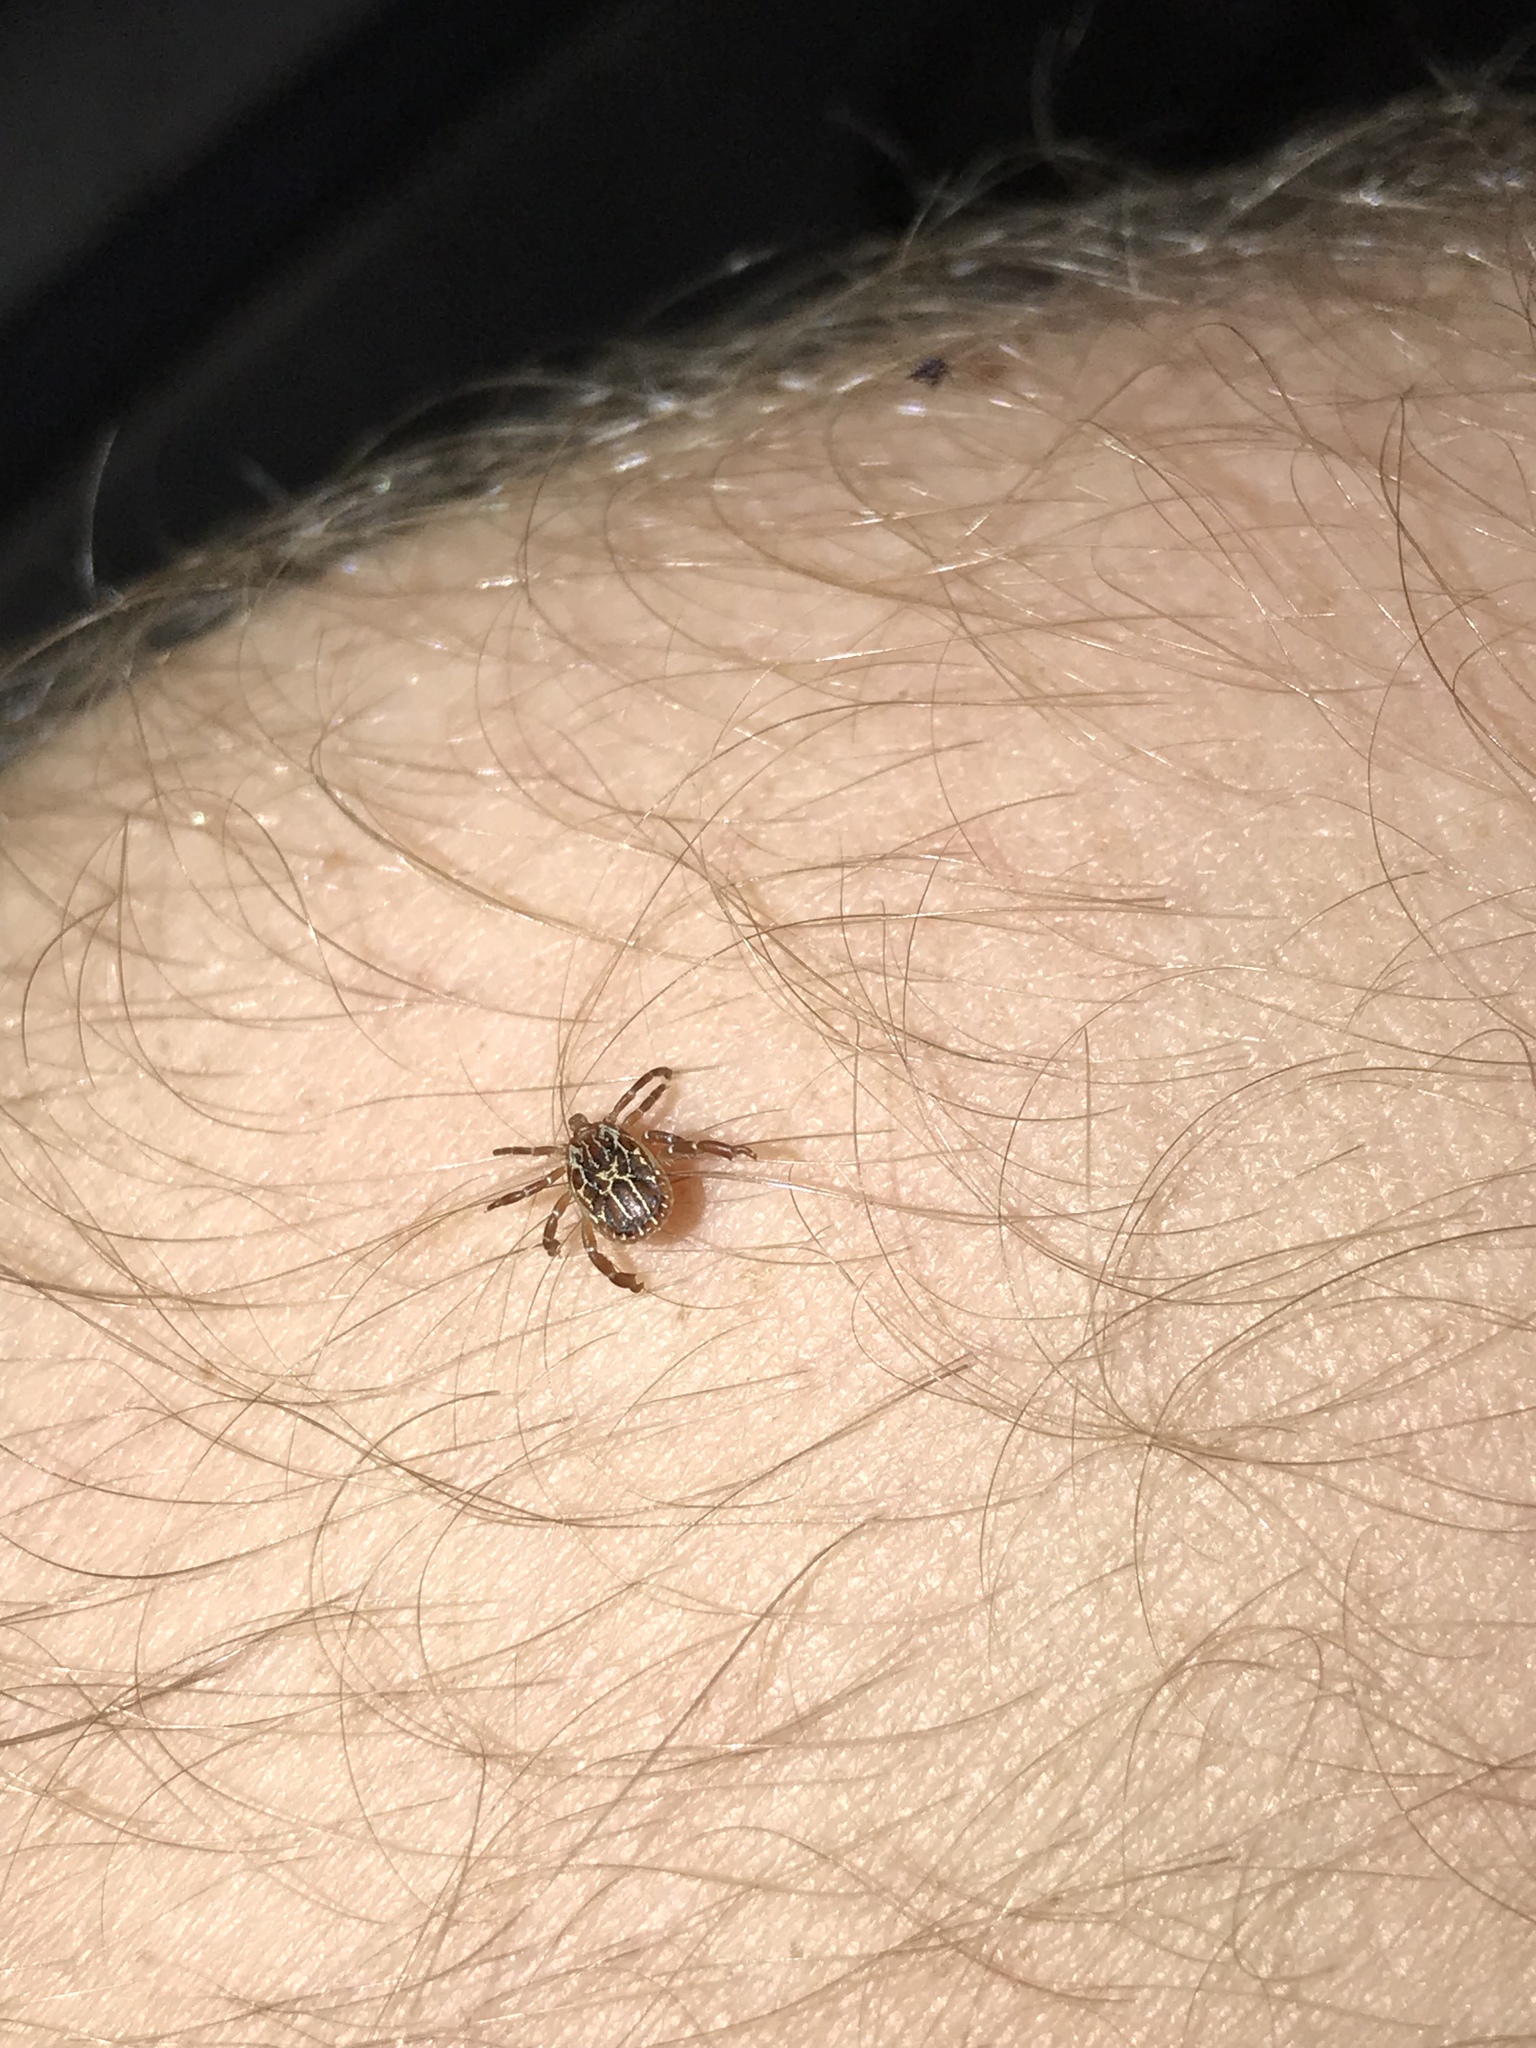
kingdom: Animalia
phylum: Arthropoda
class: Arachnida
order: Ixodida
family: Ixodidae
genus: Amblyomma
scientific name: Amblyomma maculatum
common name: Gulf coast tick
